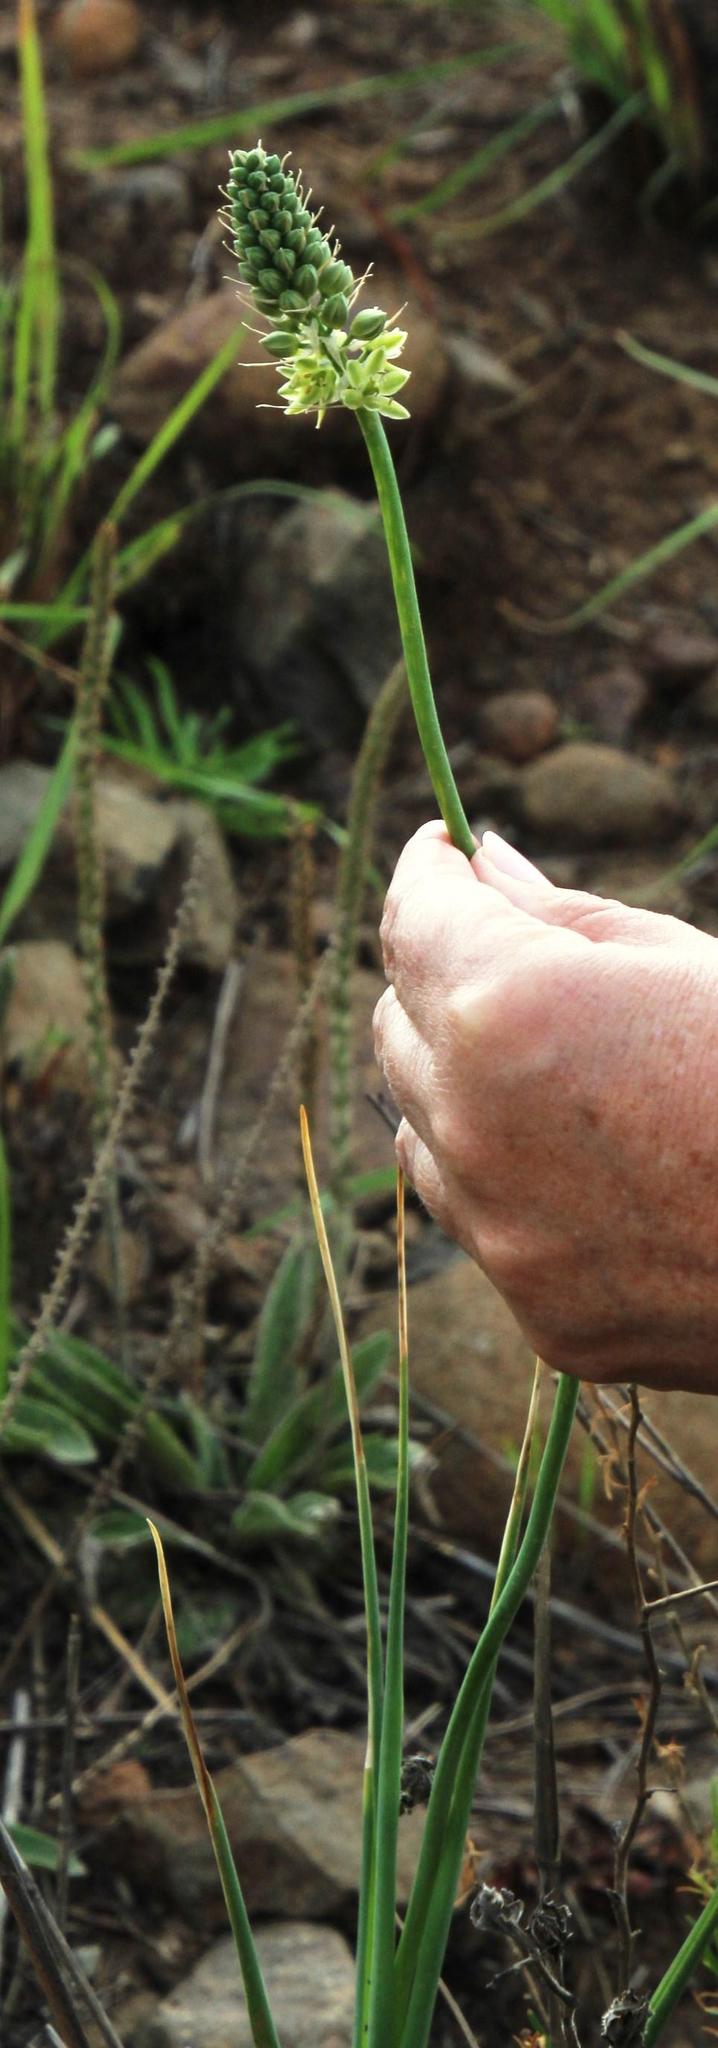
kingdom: Plantae
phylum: Tracheophyta
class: Liliopsida
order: Asparagales
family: Asparagaceae
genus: Albuca
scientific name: Albuca virens
